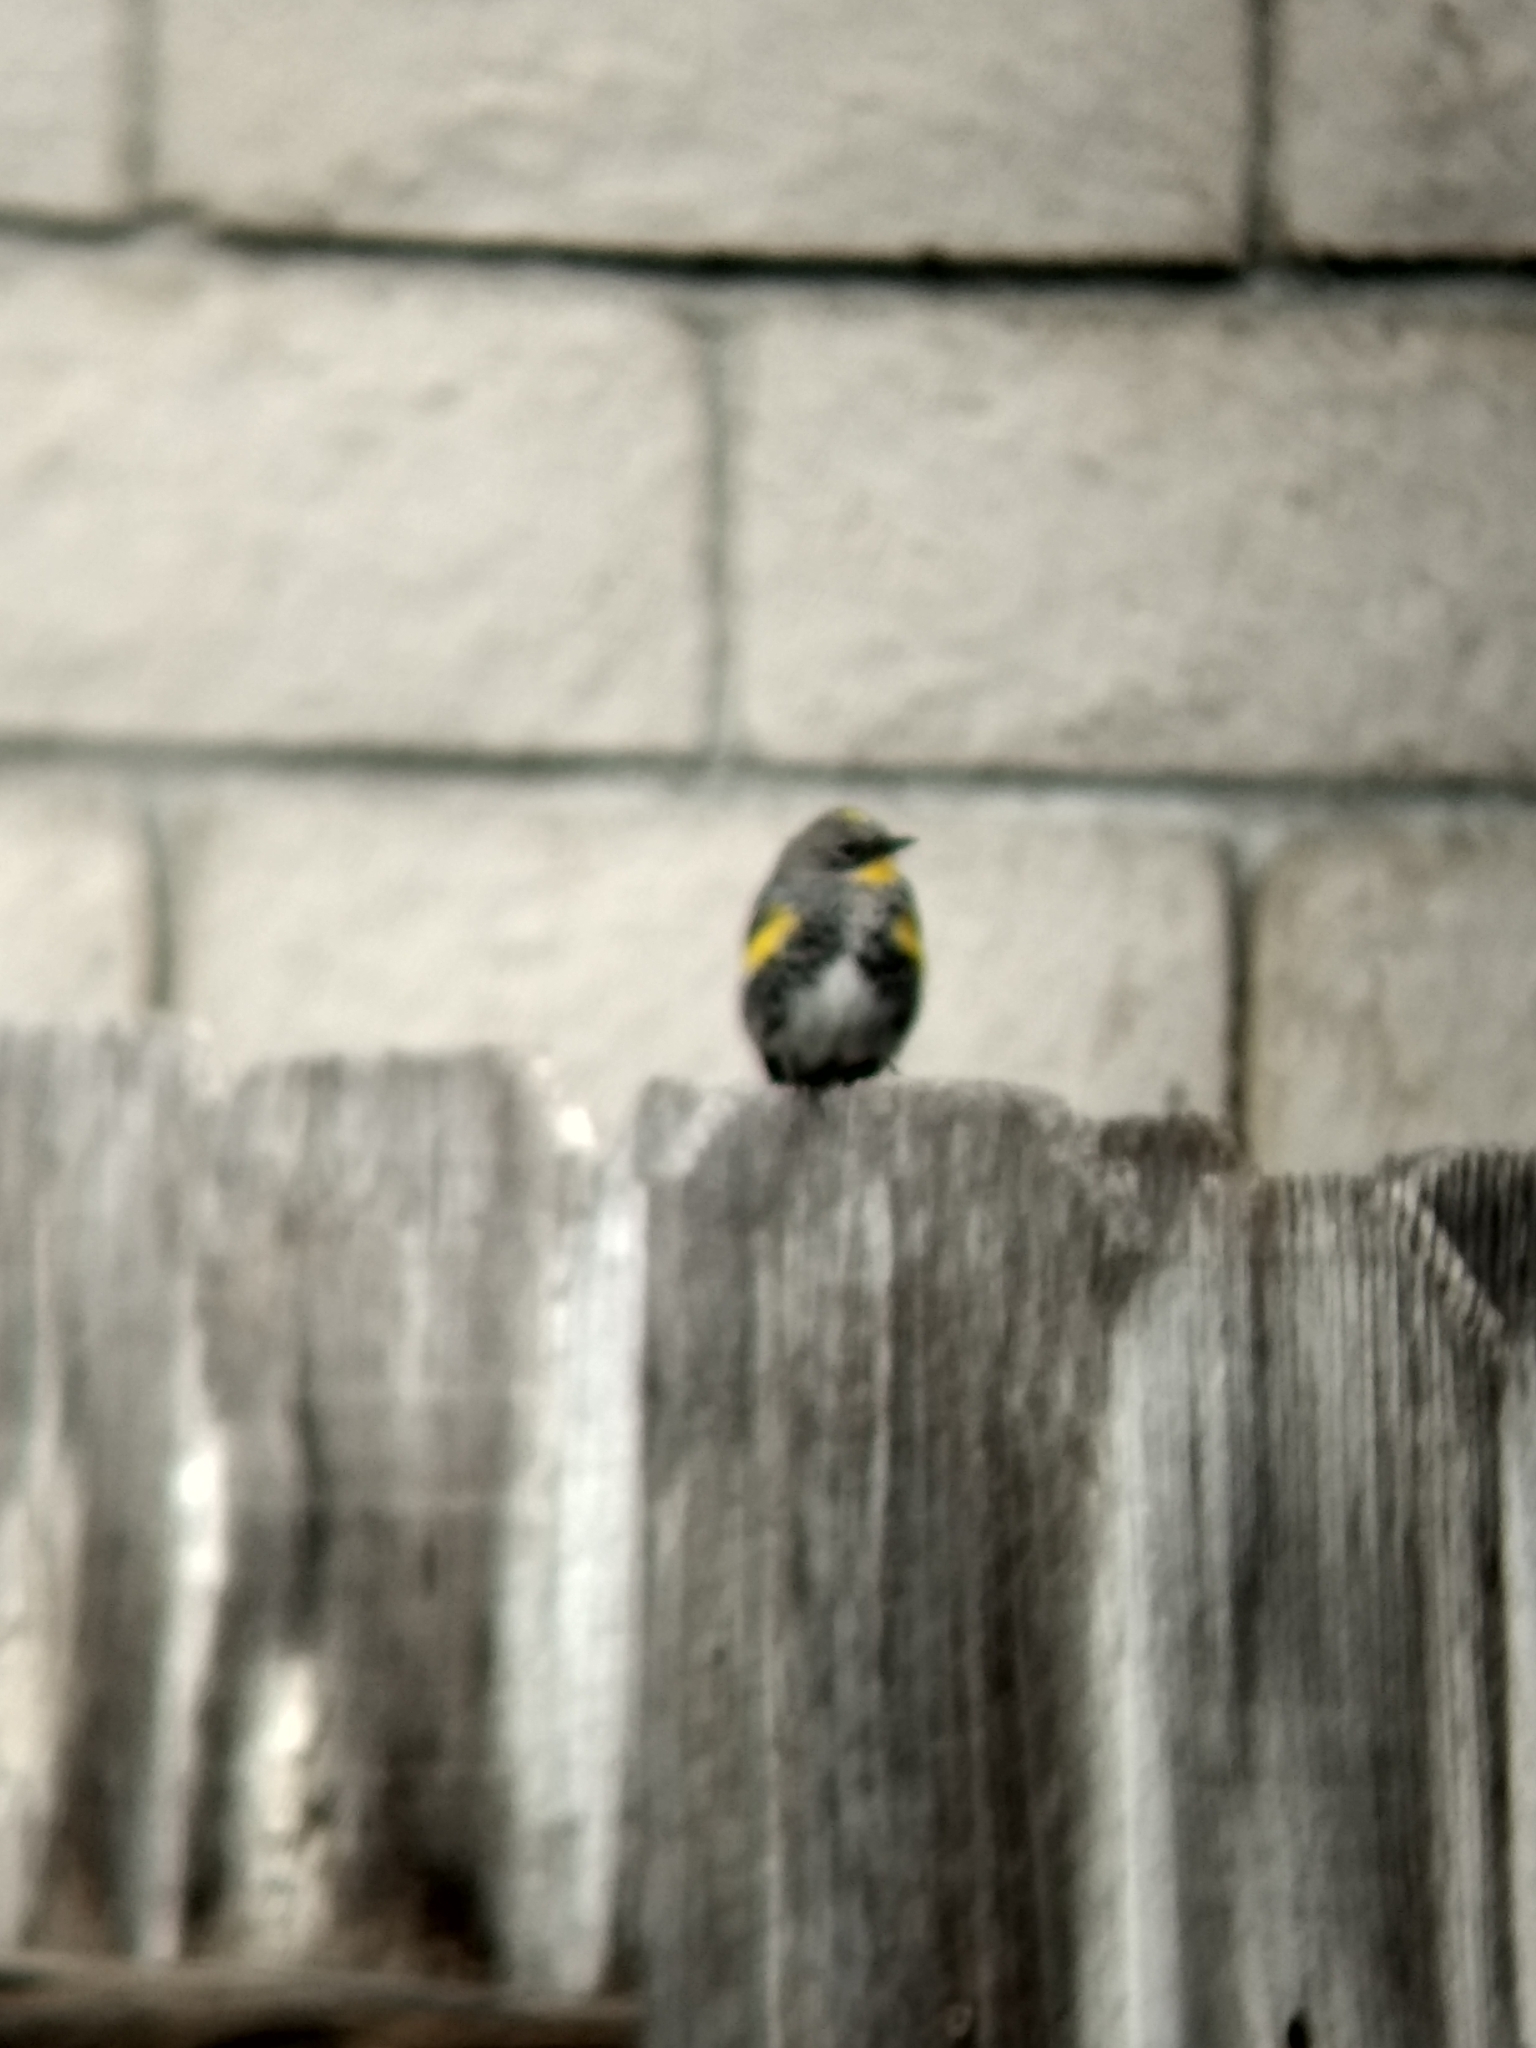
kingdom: Animalia
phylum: Chordata
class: Aves
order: Passeriformes
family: Parulidae
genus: Setophaga
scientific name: Setophaga auduboni
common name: Audubon's warbler
